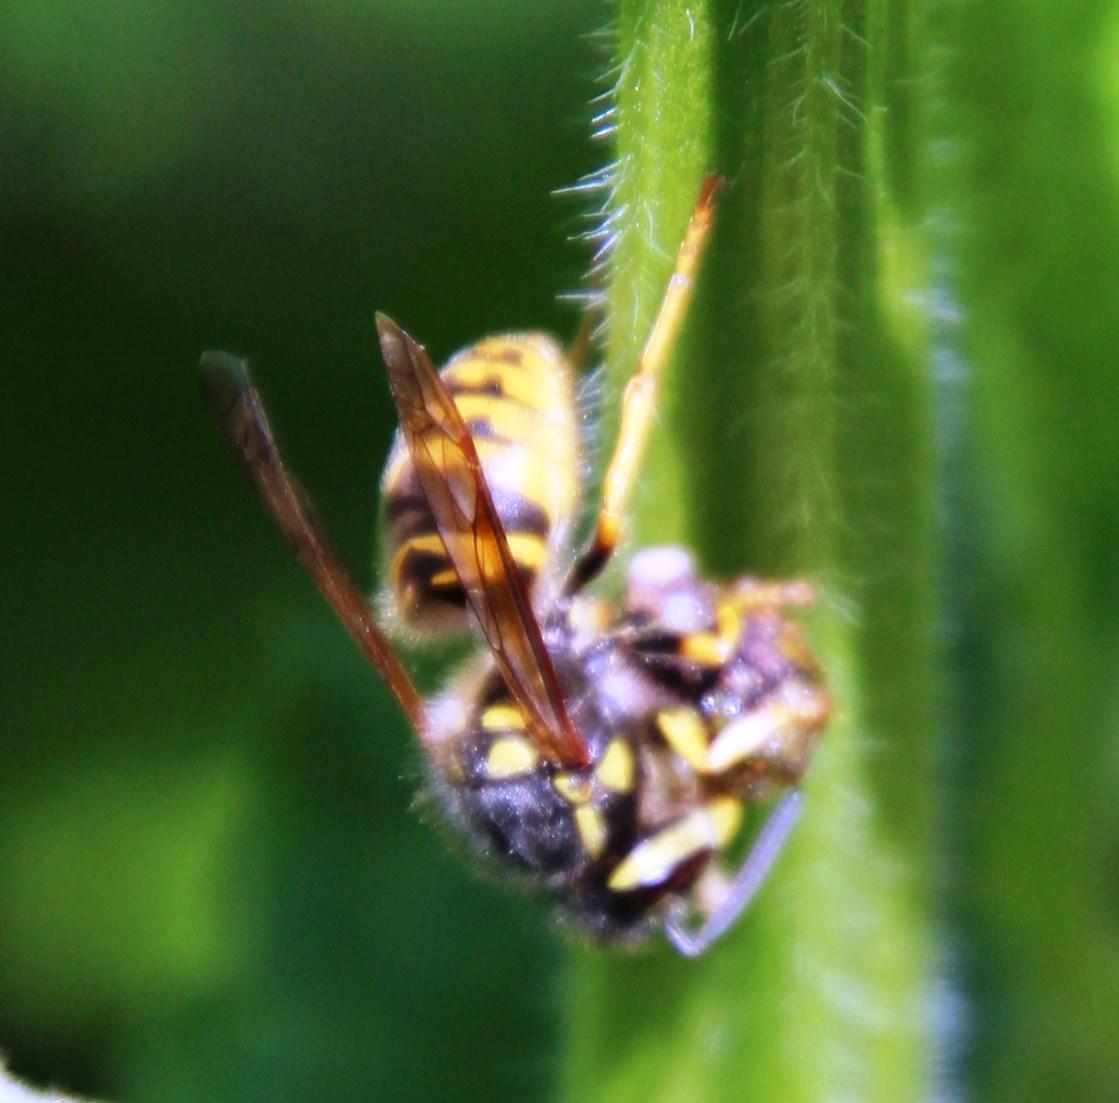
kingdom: Animalia
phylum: Arthropoda
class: Insecta
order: Hymenoptera
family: Vespidae
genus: Vespula
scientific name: Vespula germanica
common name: German wasp
